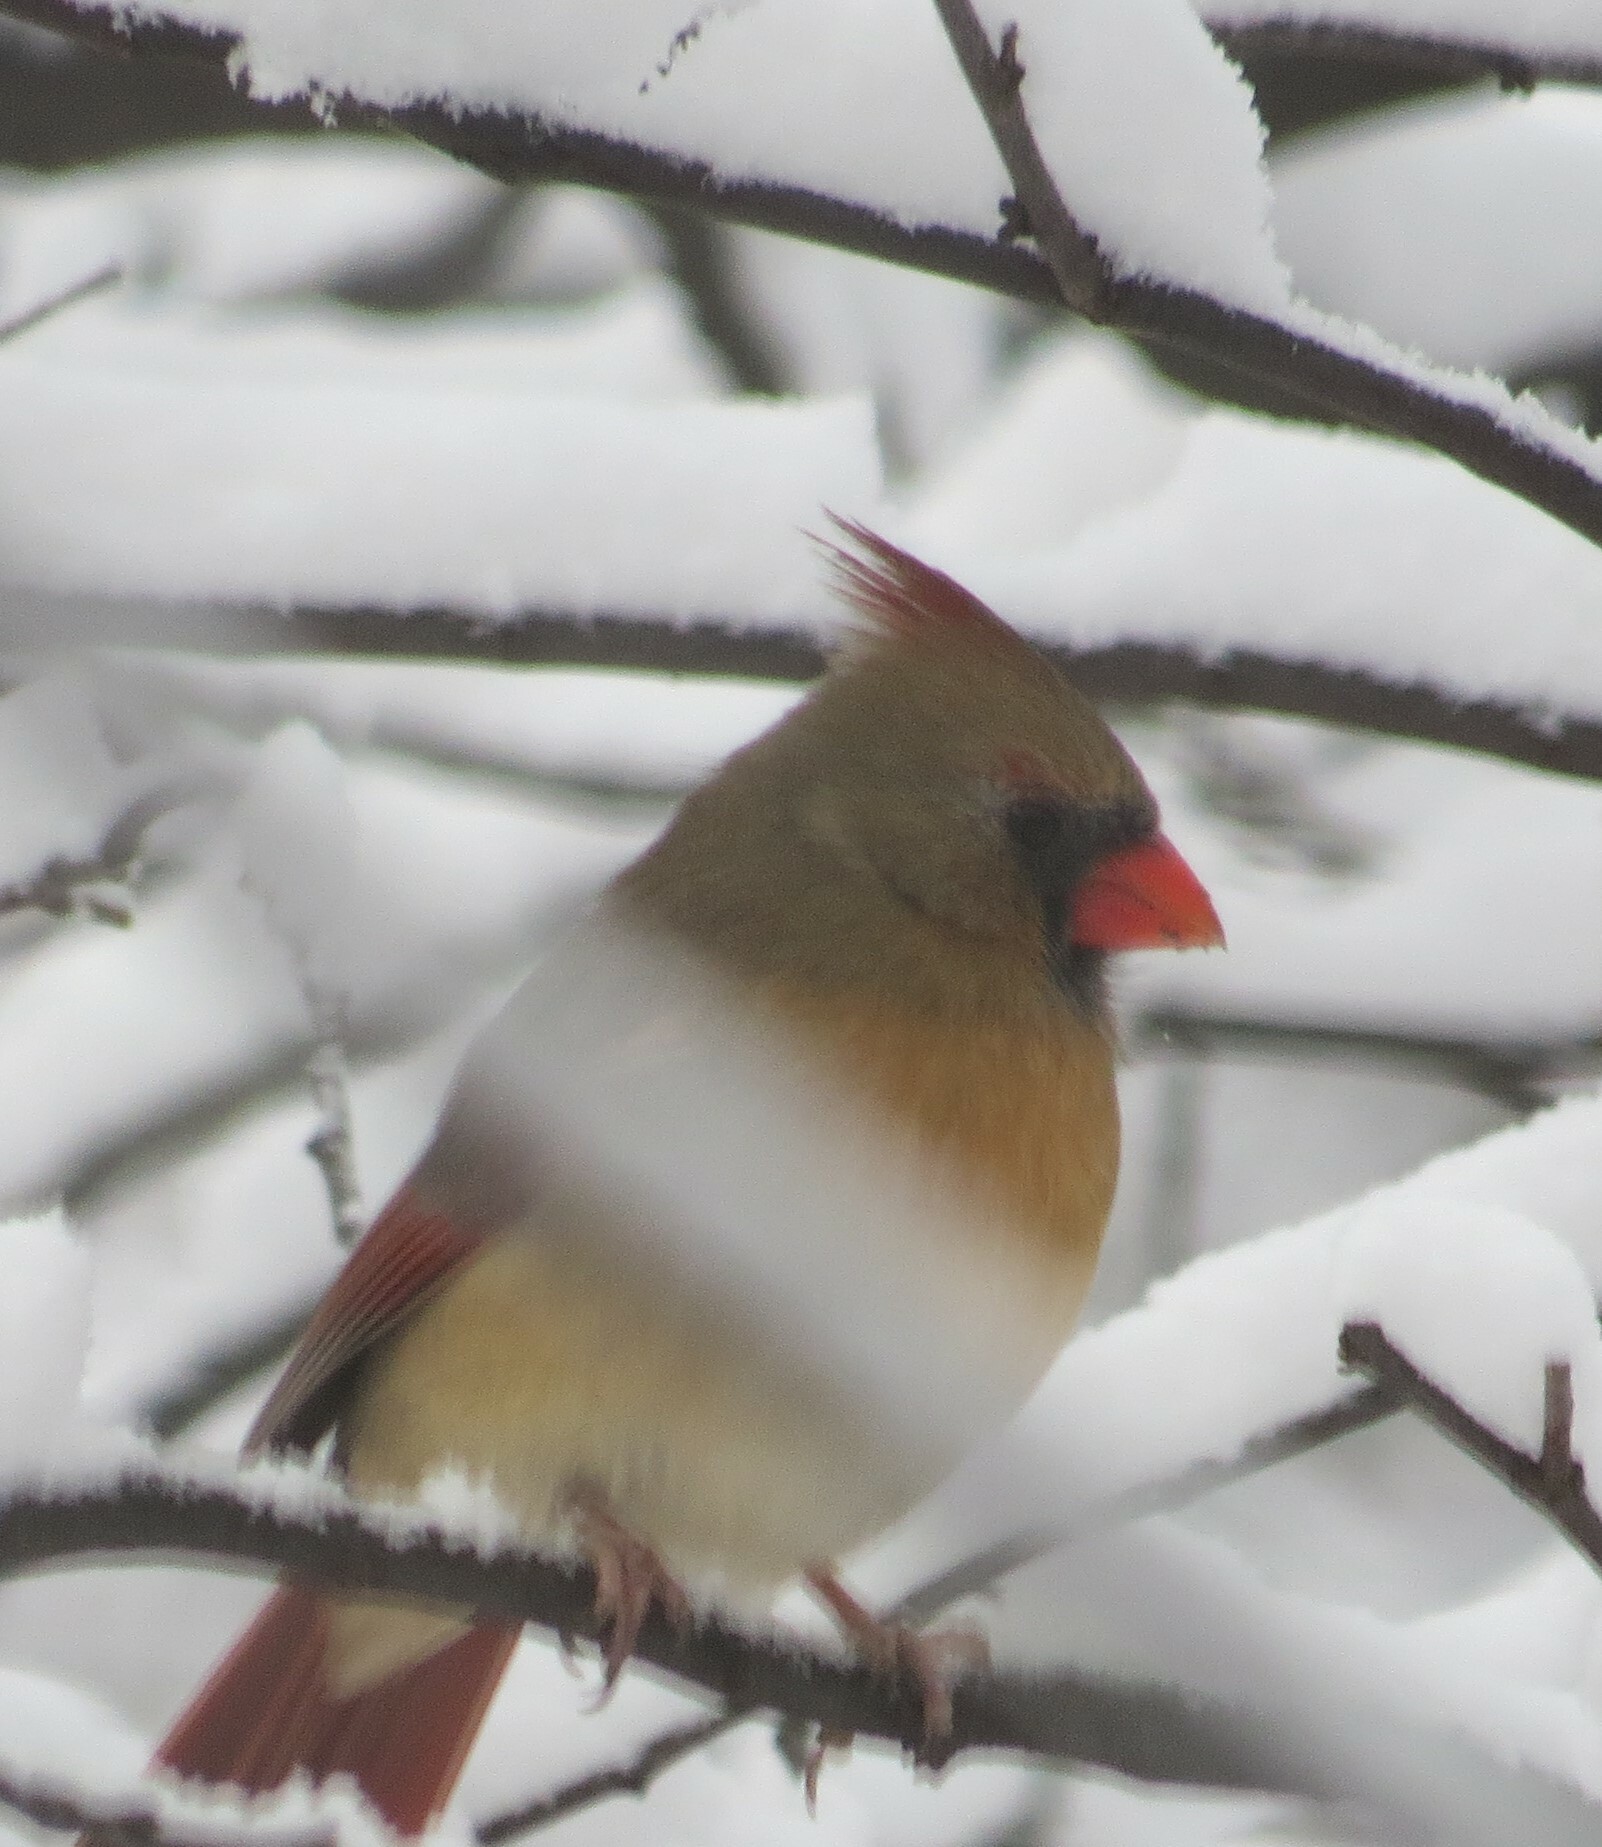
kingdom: Animalia
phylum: Chordata
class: Aves
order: Passeriformes
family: Cardinalidae
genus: Cardinalis
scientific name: Cardinalis cardinalis
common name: Northern cardinal
